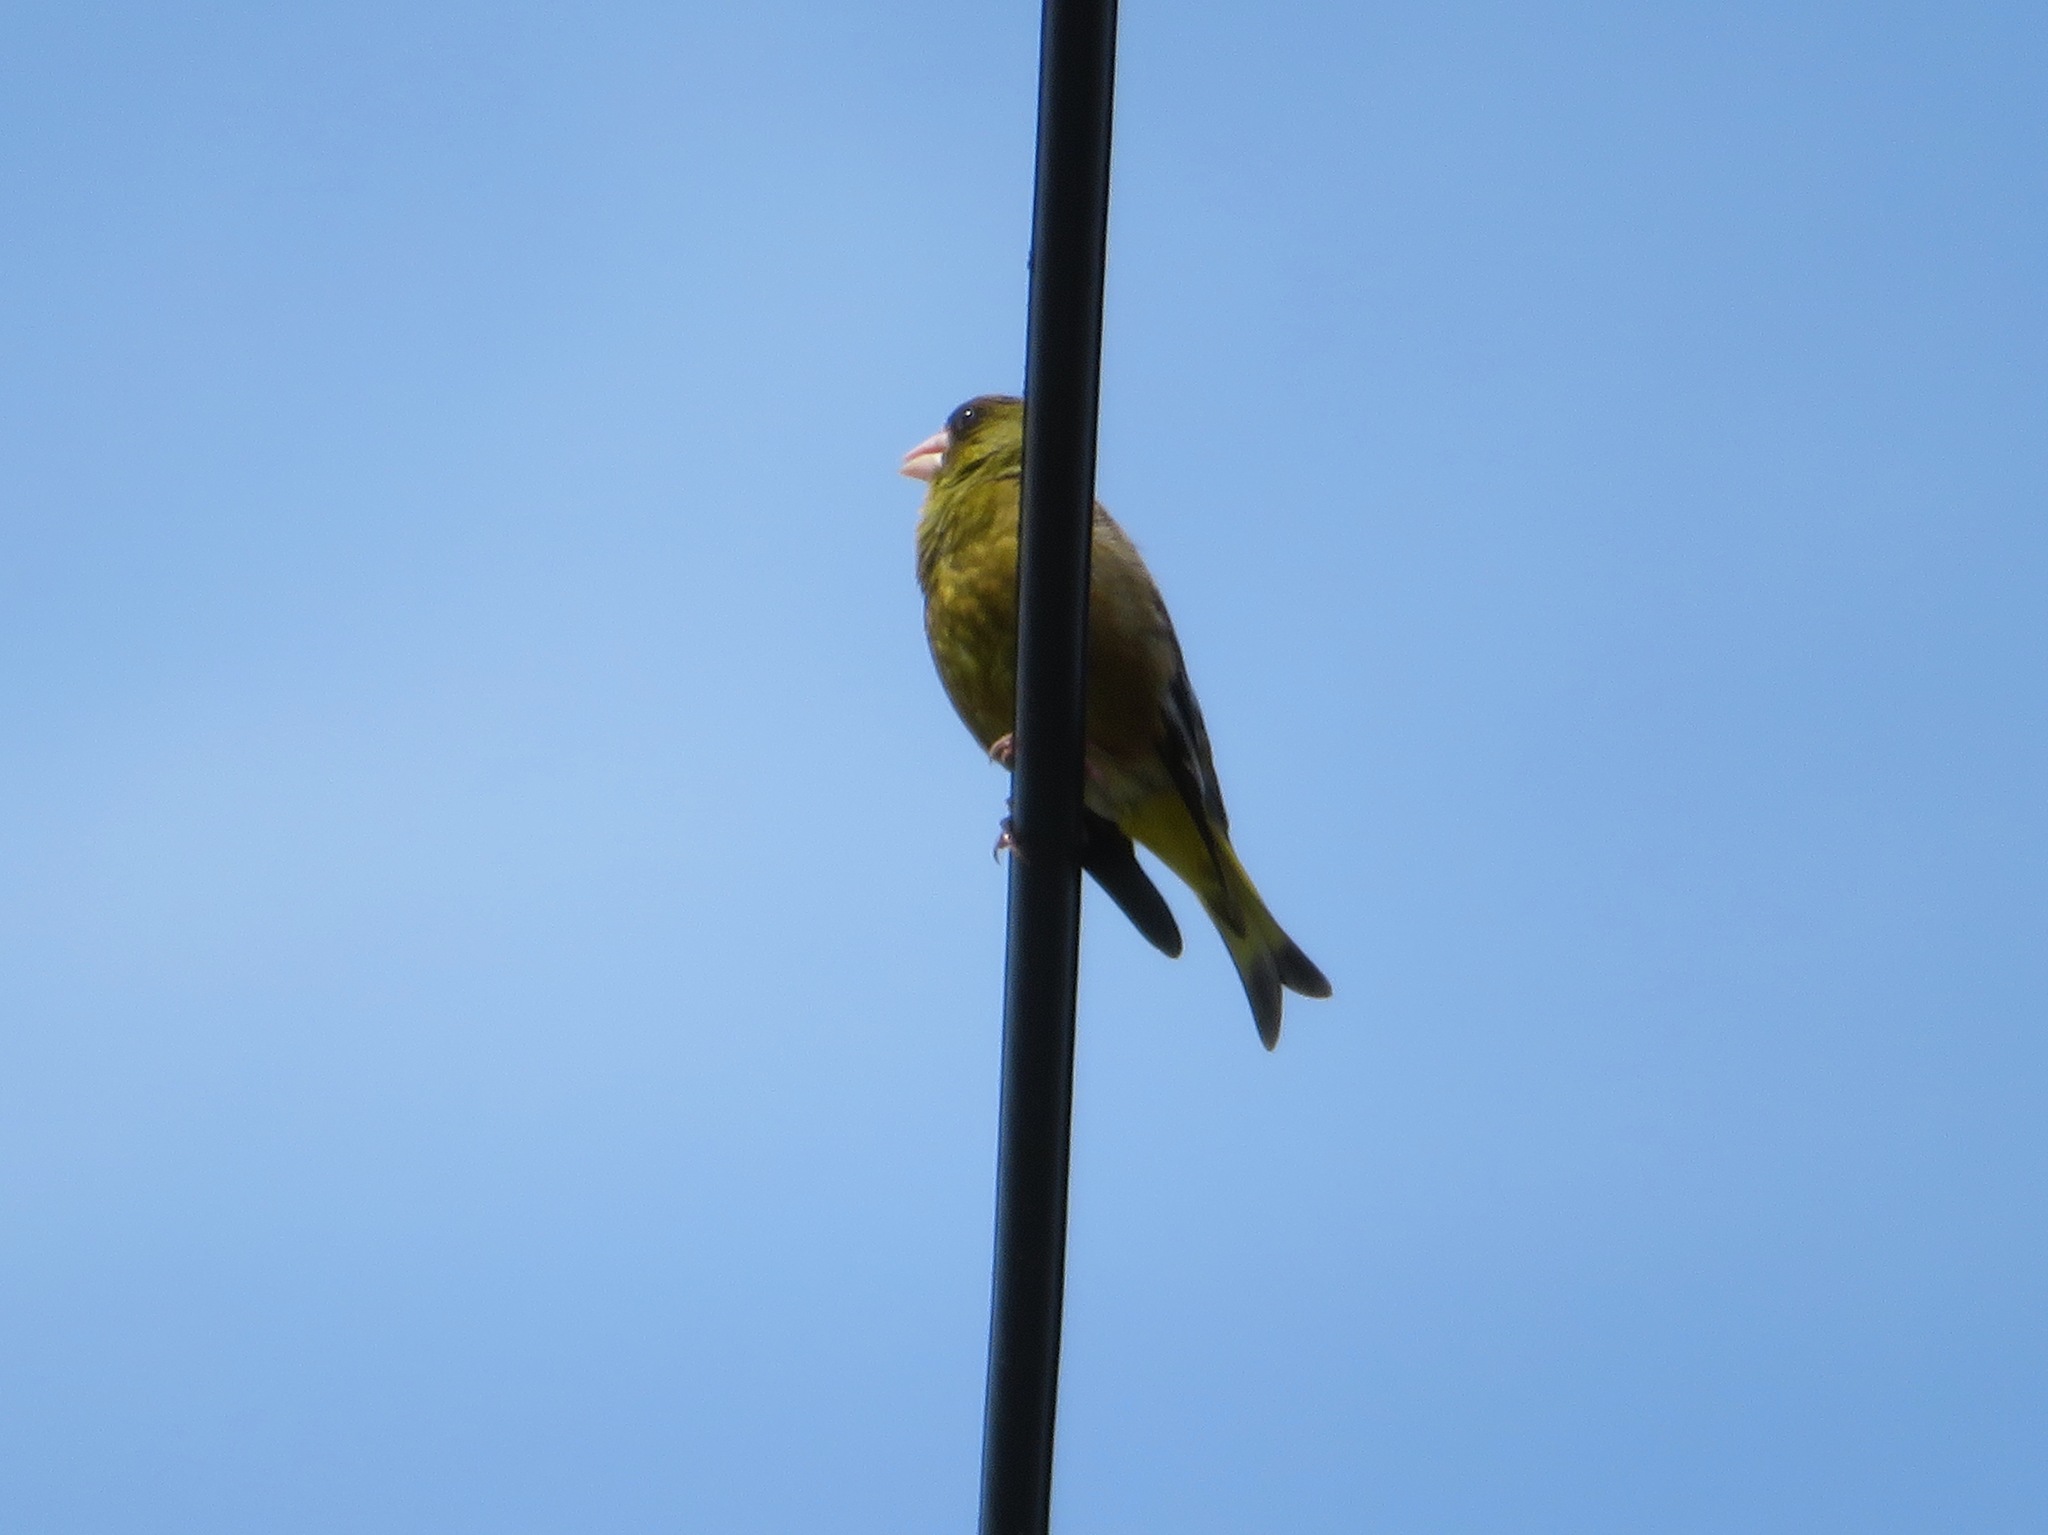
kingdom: Plantae
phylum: Tracheophyta
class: Liliopsida
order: Poales
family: Poaceae
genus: Chloris
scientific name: Chloris sinica
